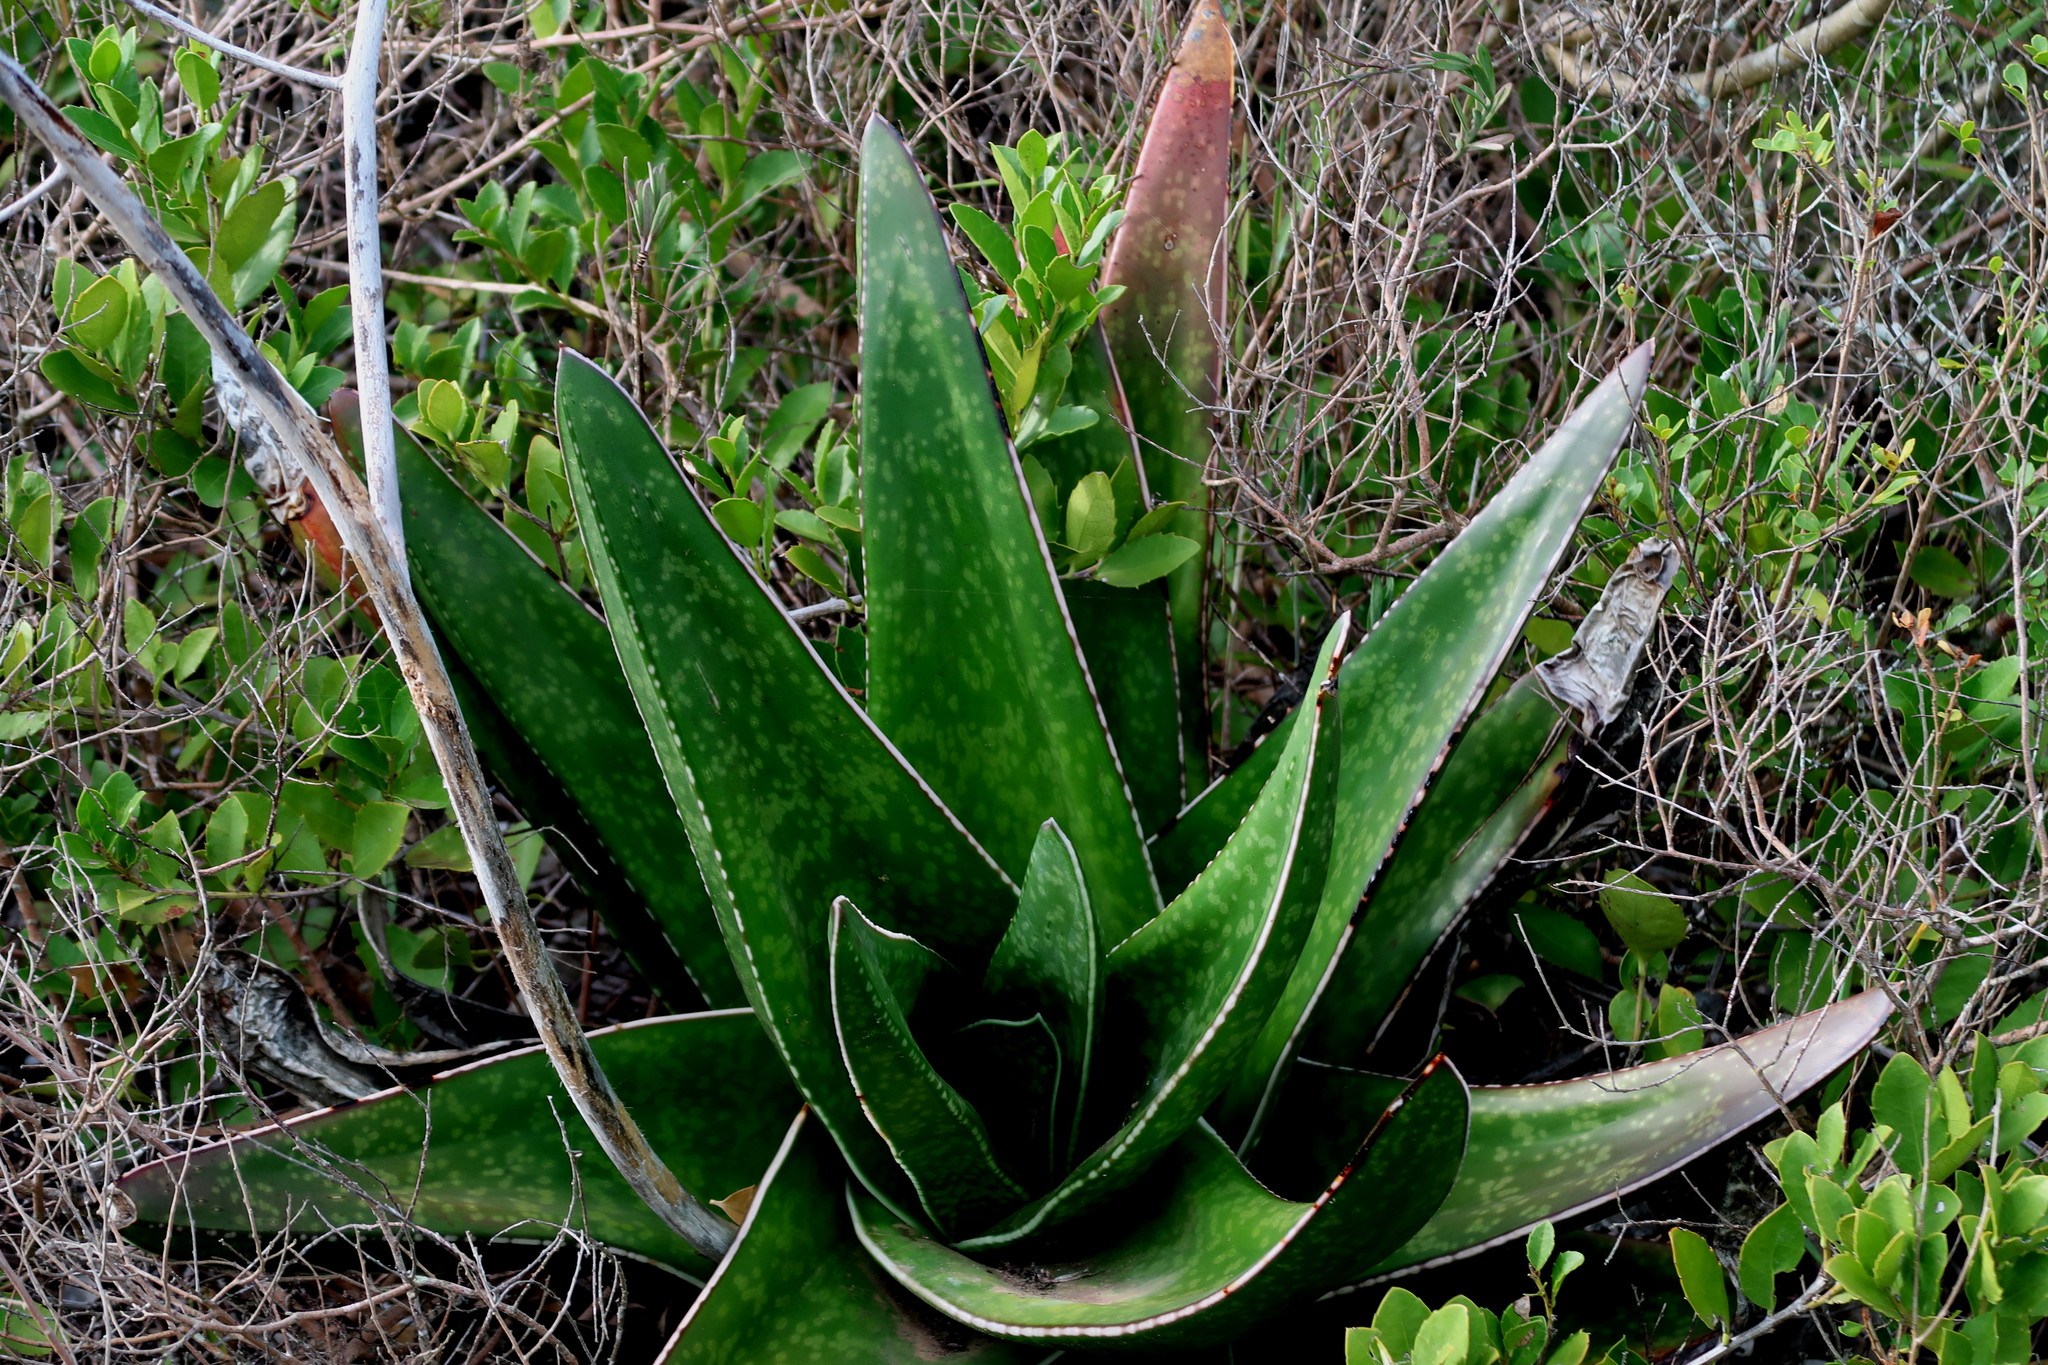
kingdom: Plantae
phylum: Tracheophyta
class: Liliopsida
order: Asparagales
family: Asphodelaceae
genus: Gasteria
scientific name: Gasteria acinacifolia
